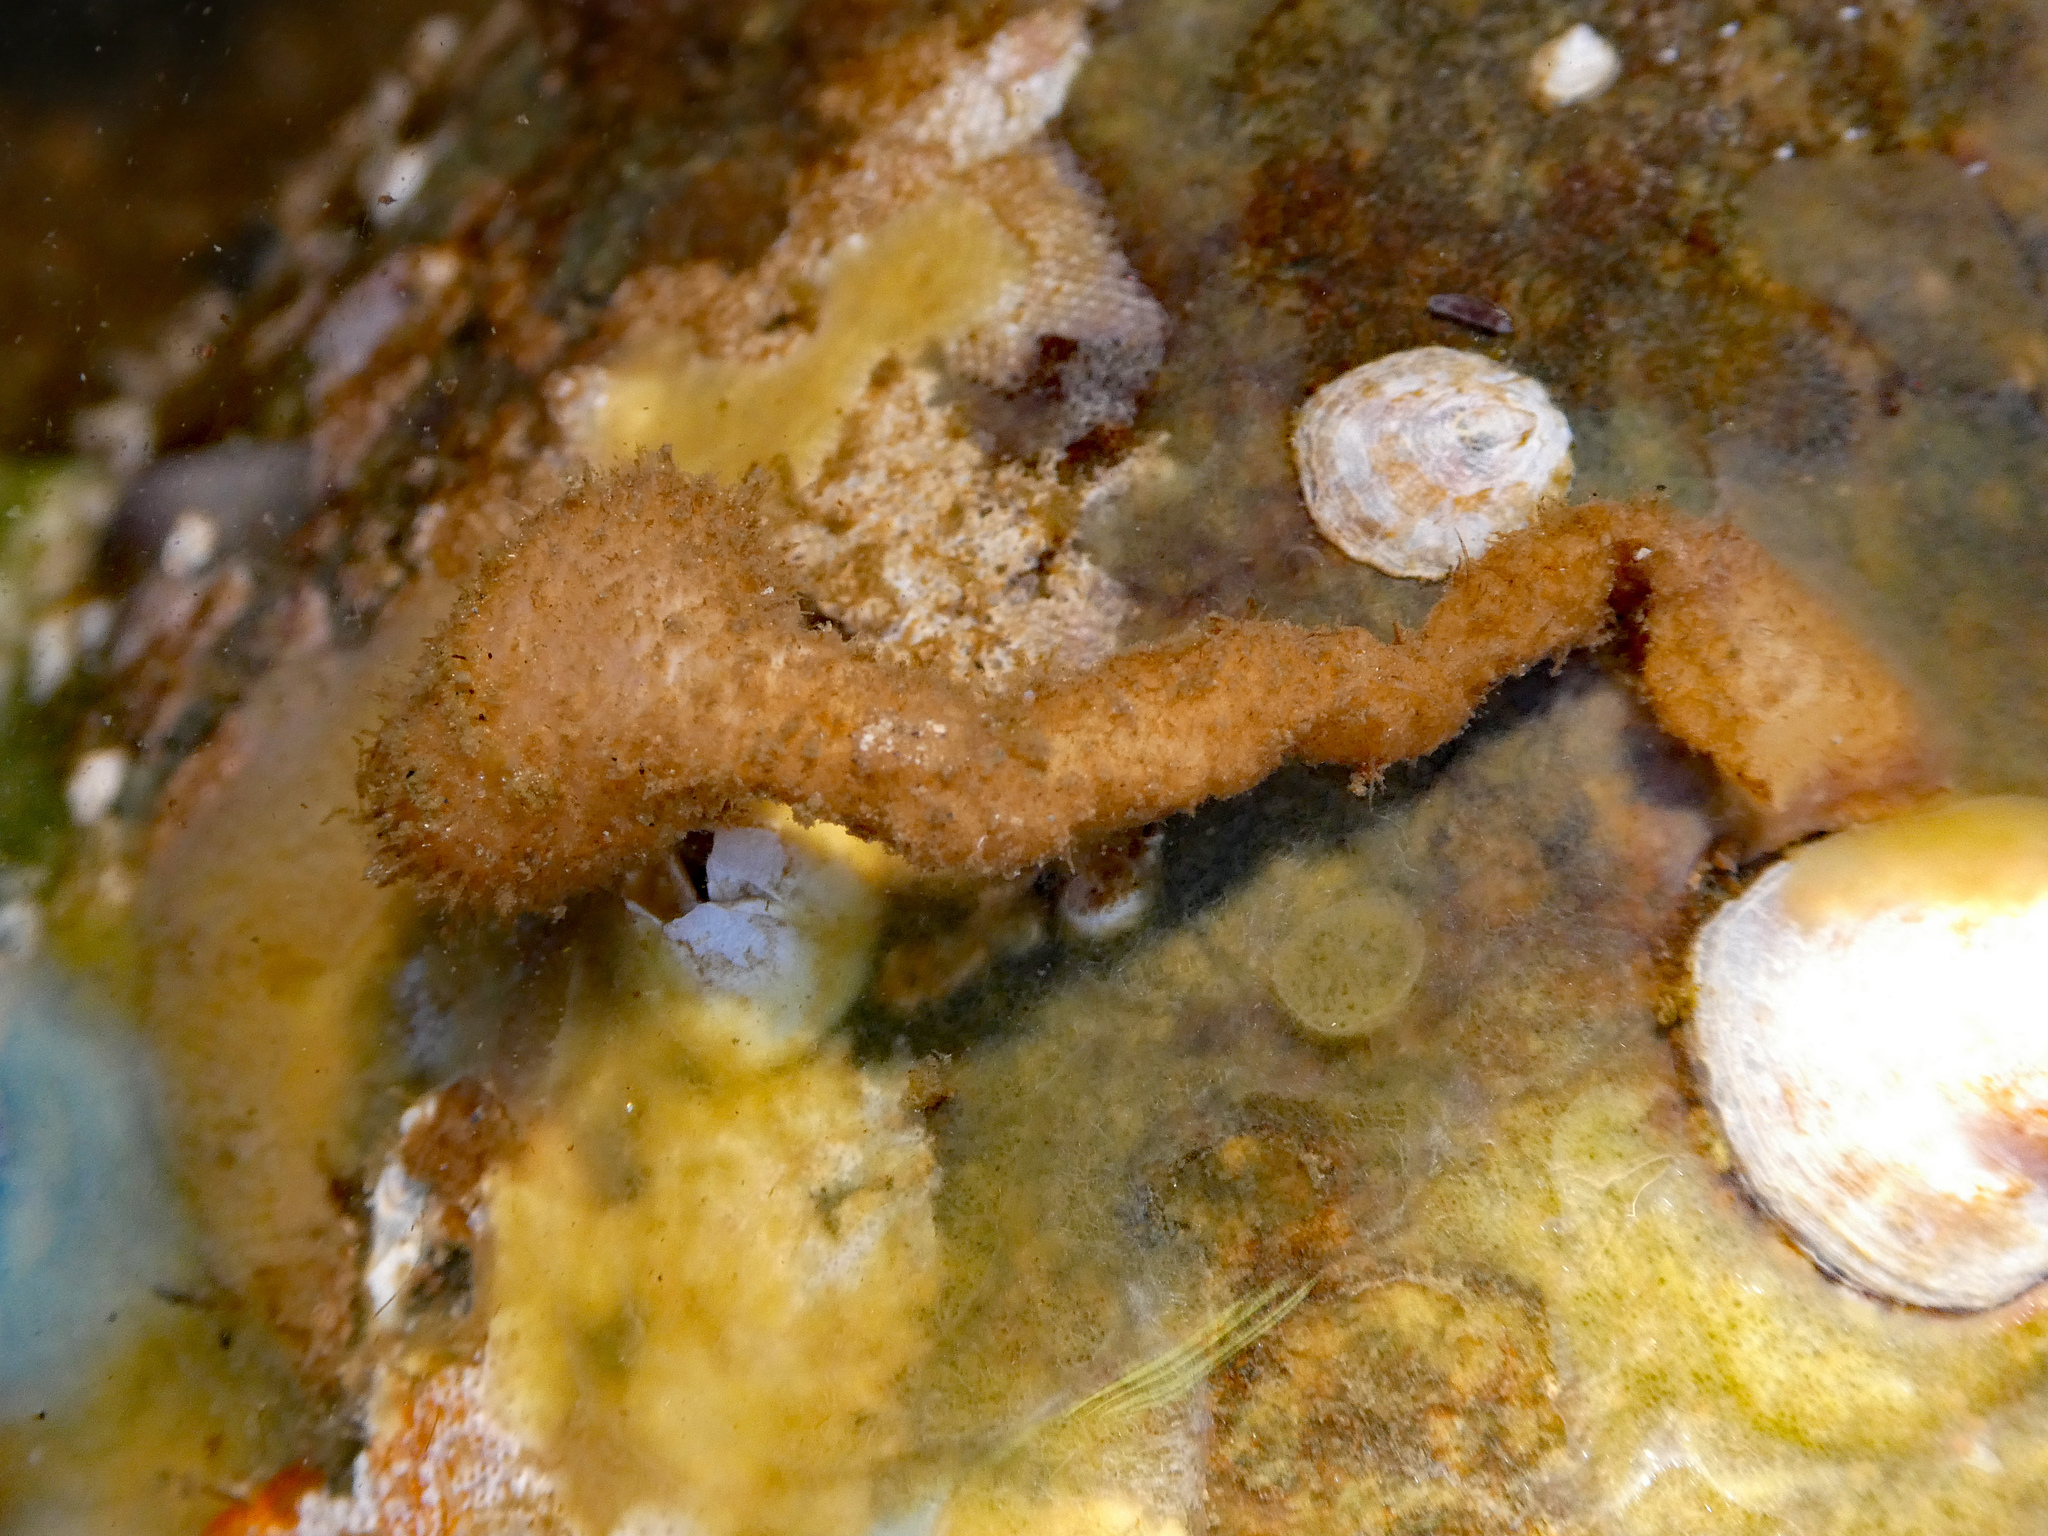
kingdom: Animalia
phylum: Chordata
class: Ascidiacea
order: Stolidobranchia
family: Pyuridae
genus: Boltenia
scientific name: Boltenia villosa
